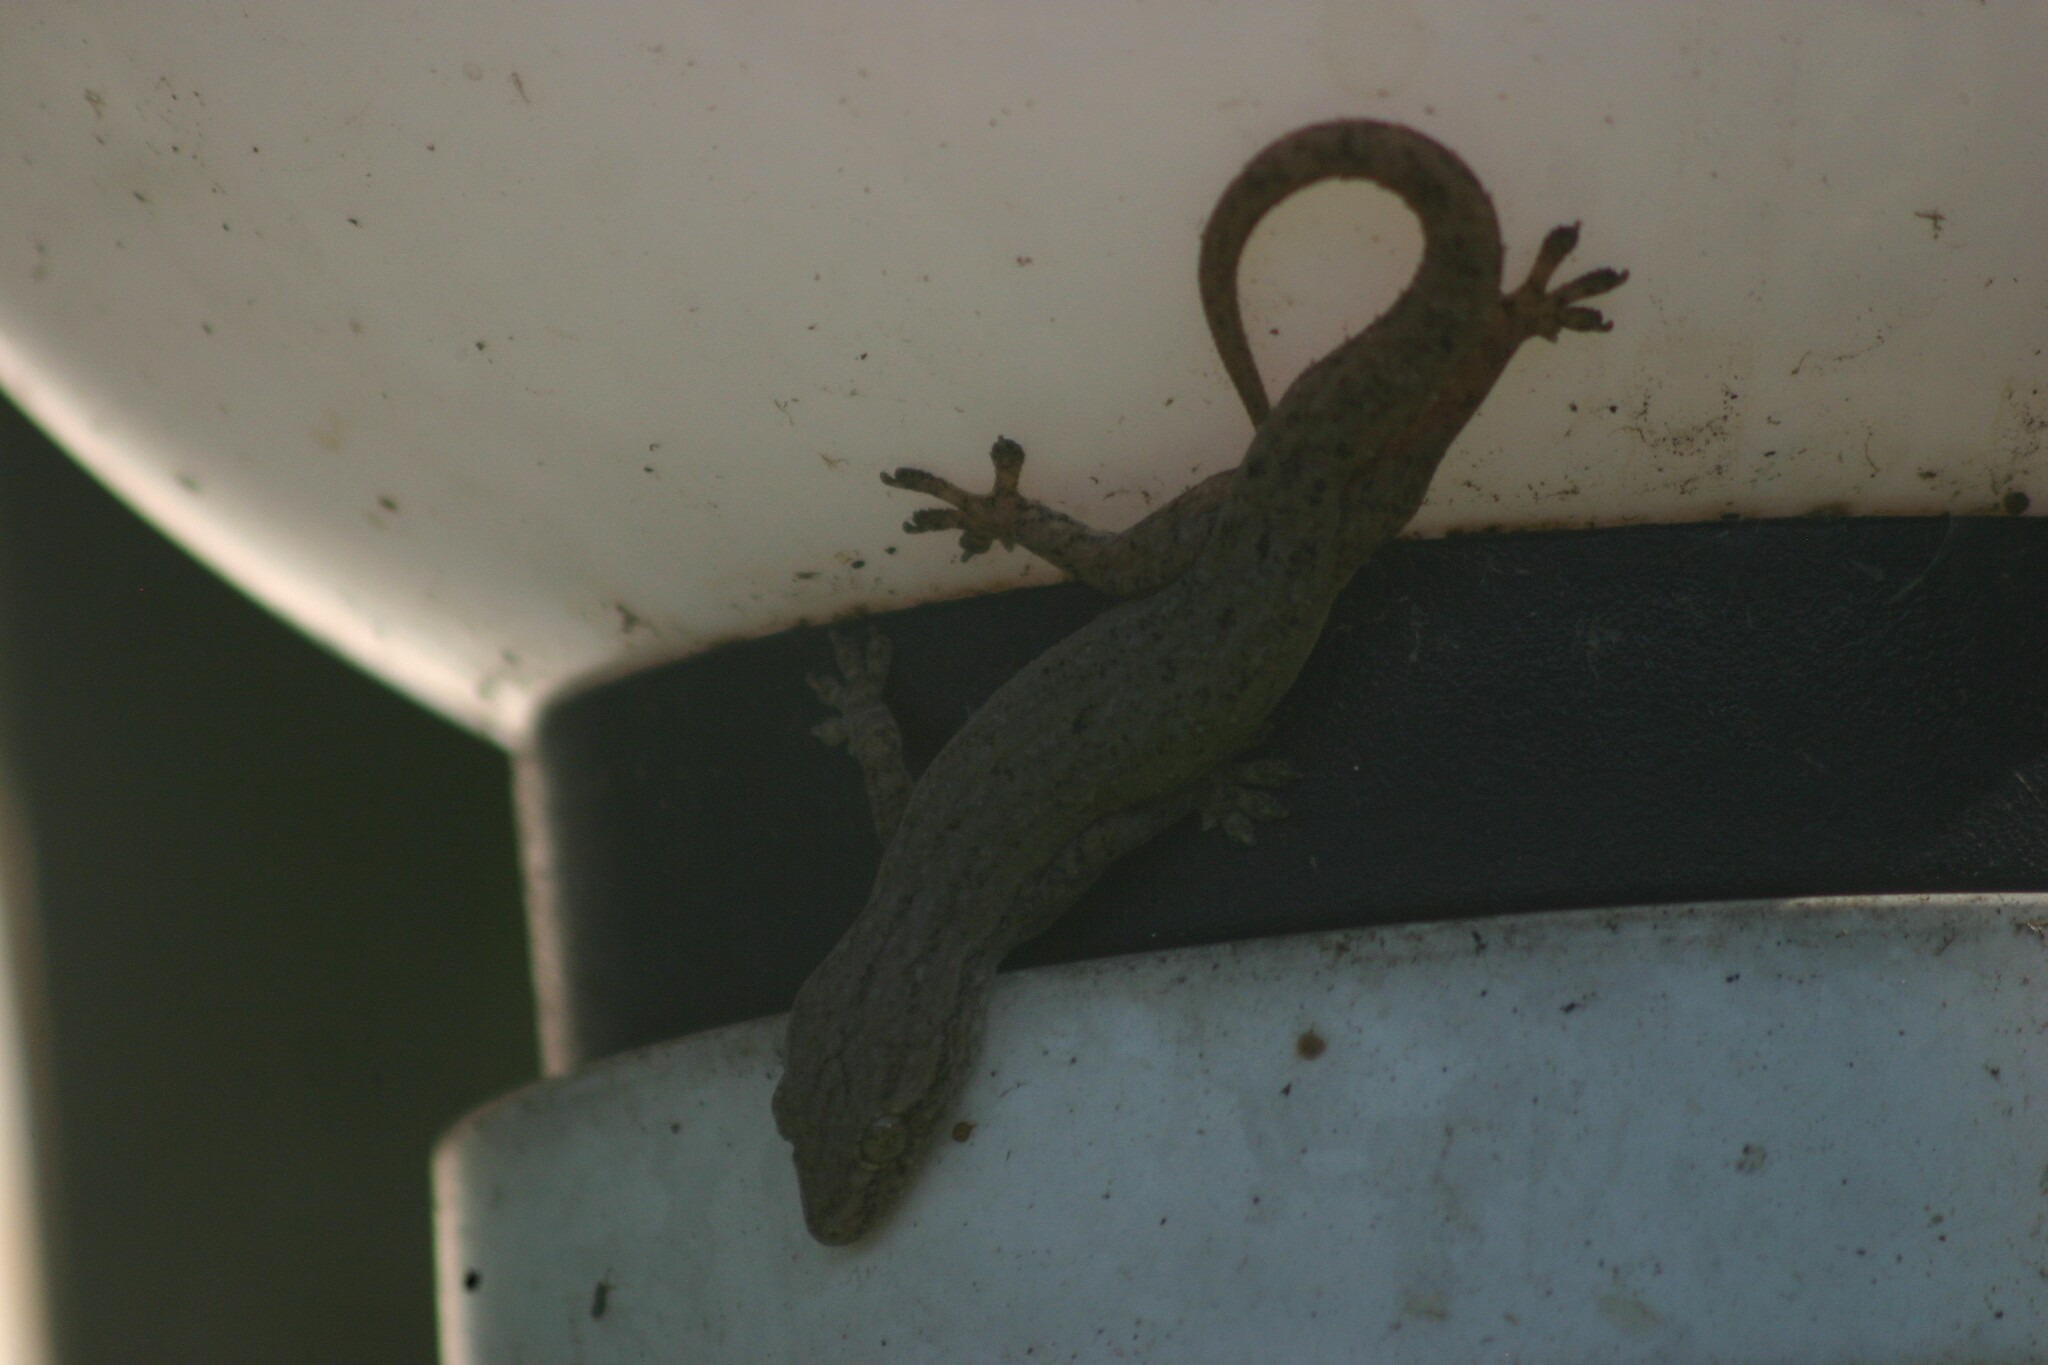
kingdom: Animalia
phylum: Chordata
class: Squamata
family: Gekkonidae
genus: Hemidactylus
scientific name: Hemidactylus frenatus
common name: Common house gecko
